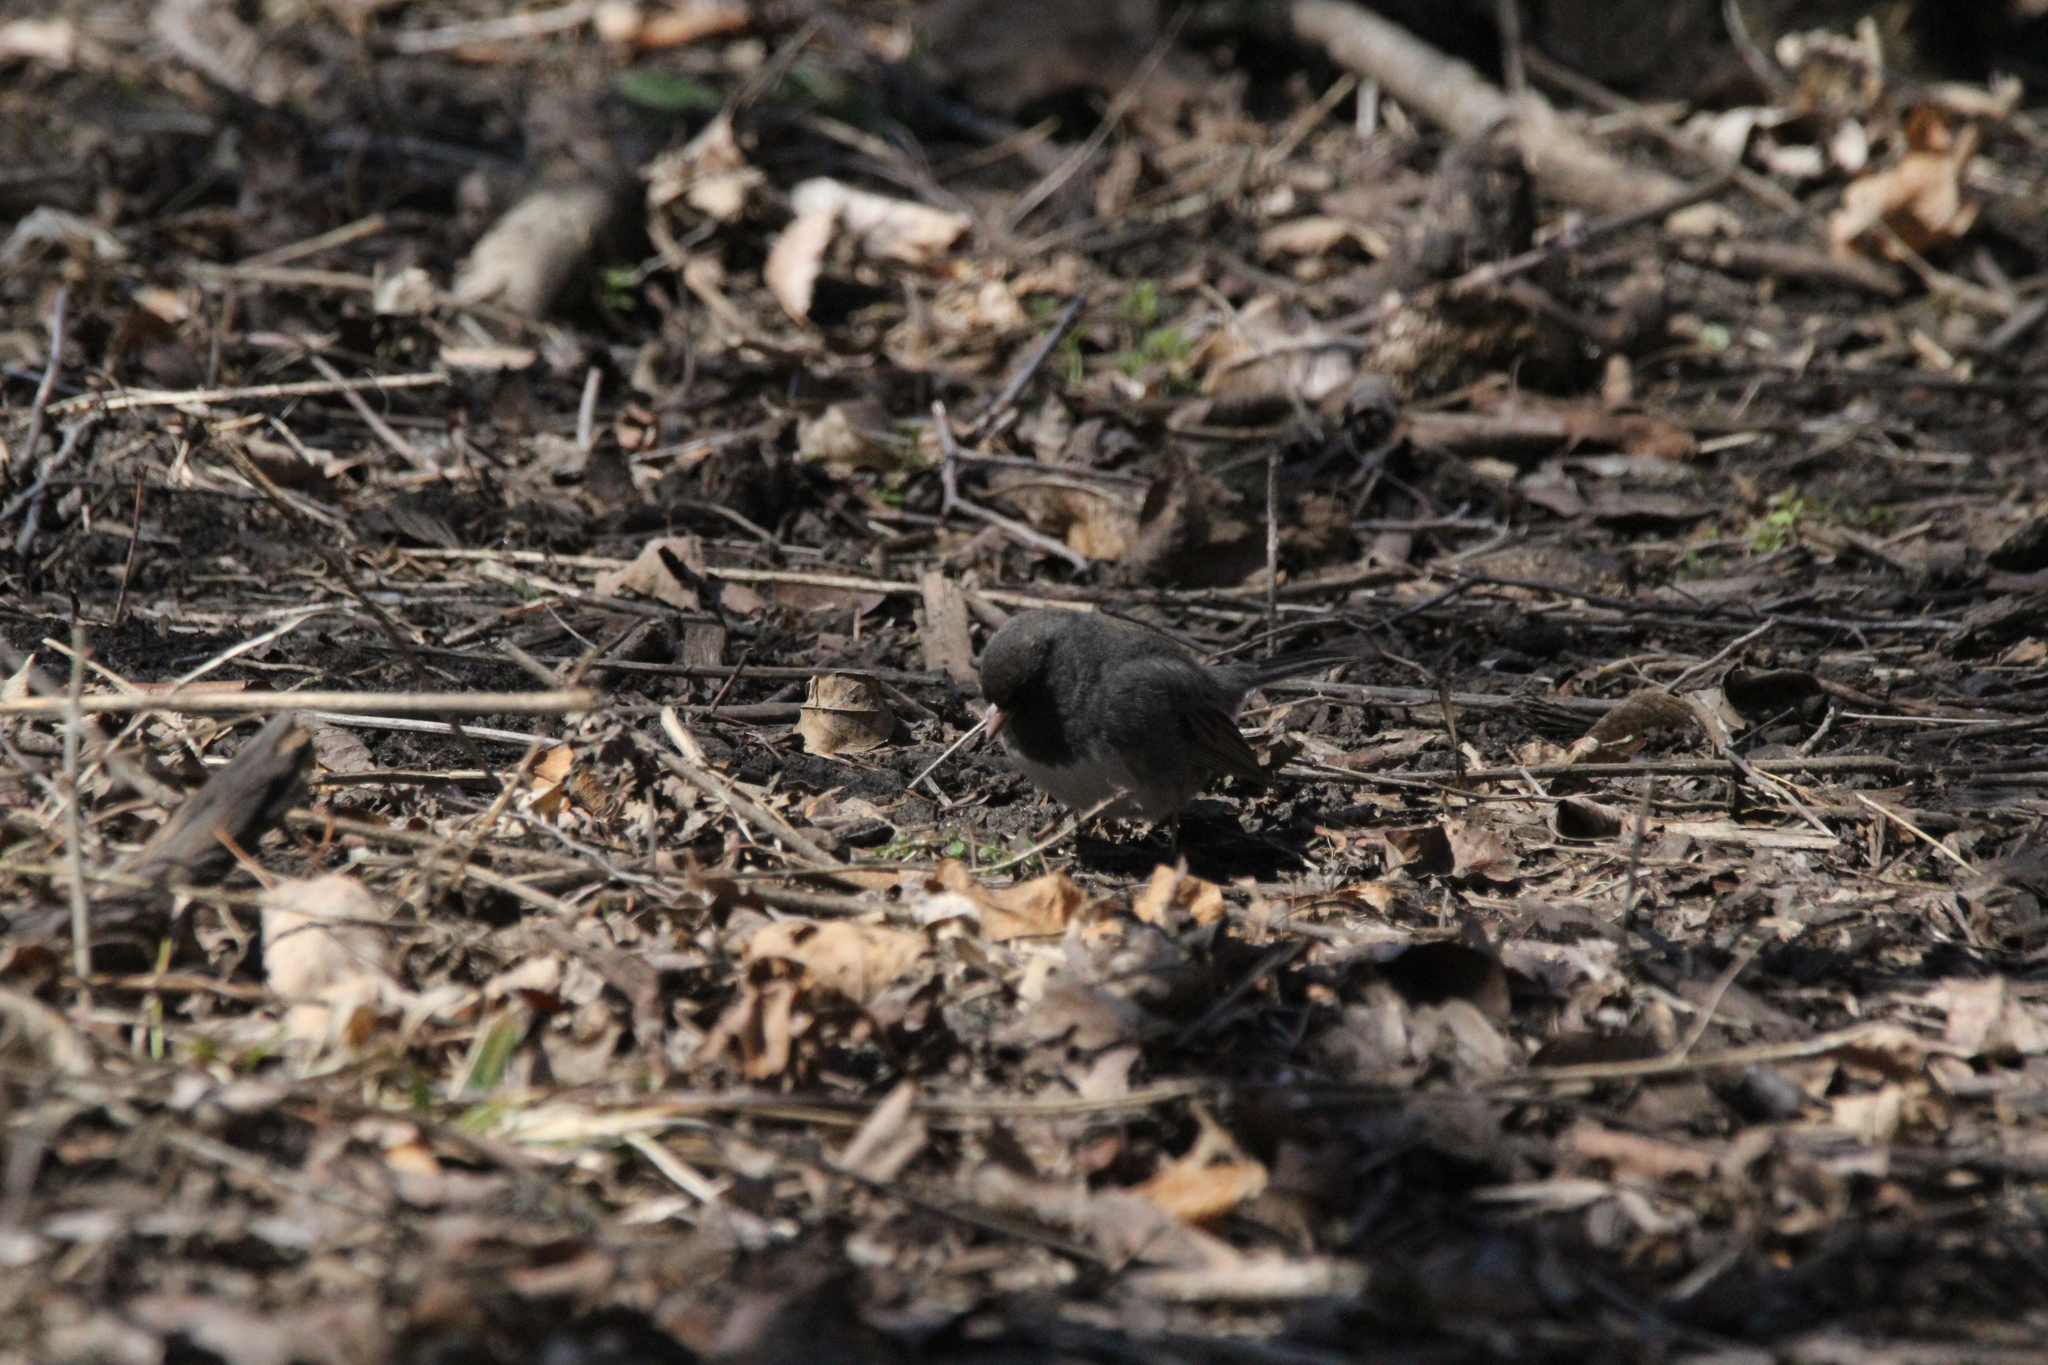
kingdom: Animalia
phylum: Chordata
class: Aves
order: Passeriformes
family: Passerellidae
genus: Junco
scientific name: Junco hyemalis
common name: Dark-eyed junco
